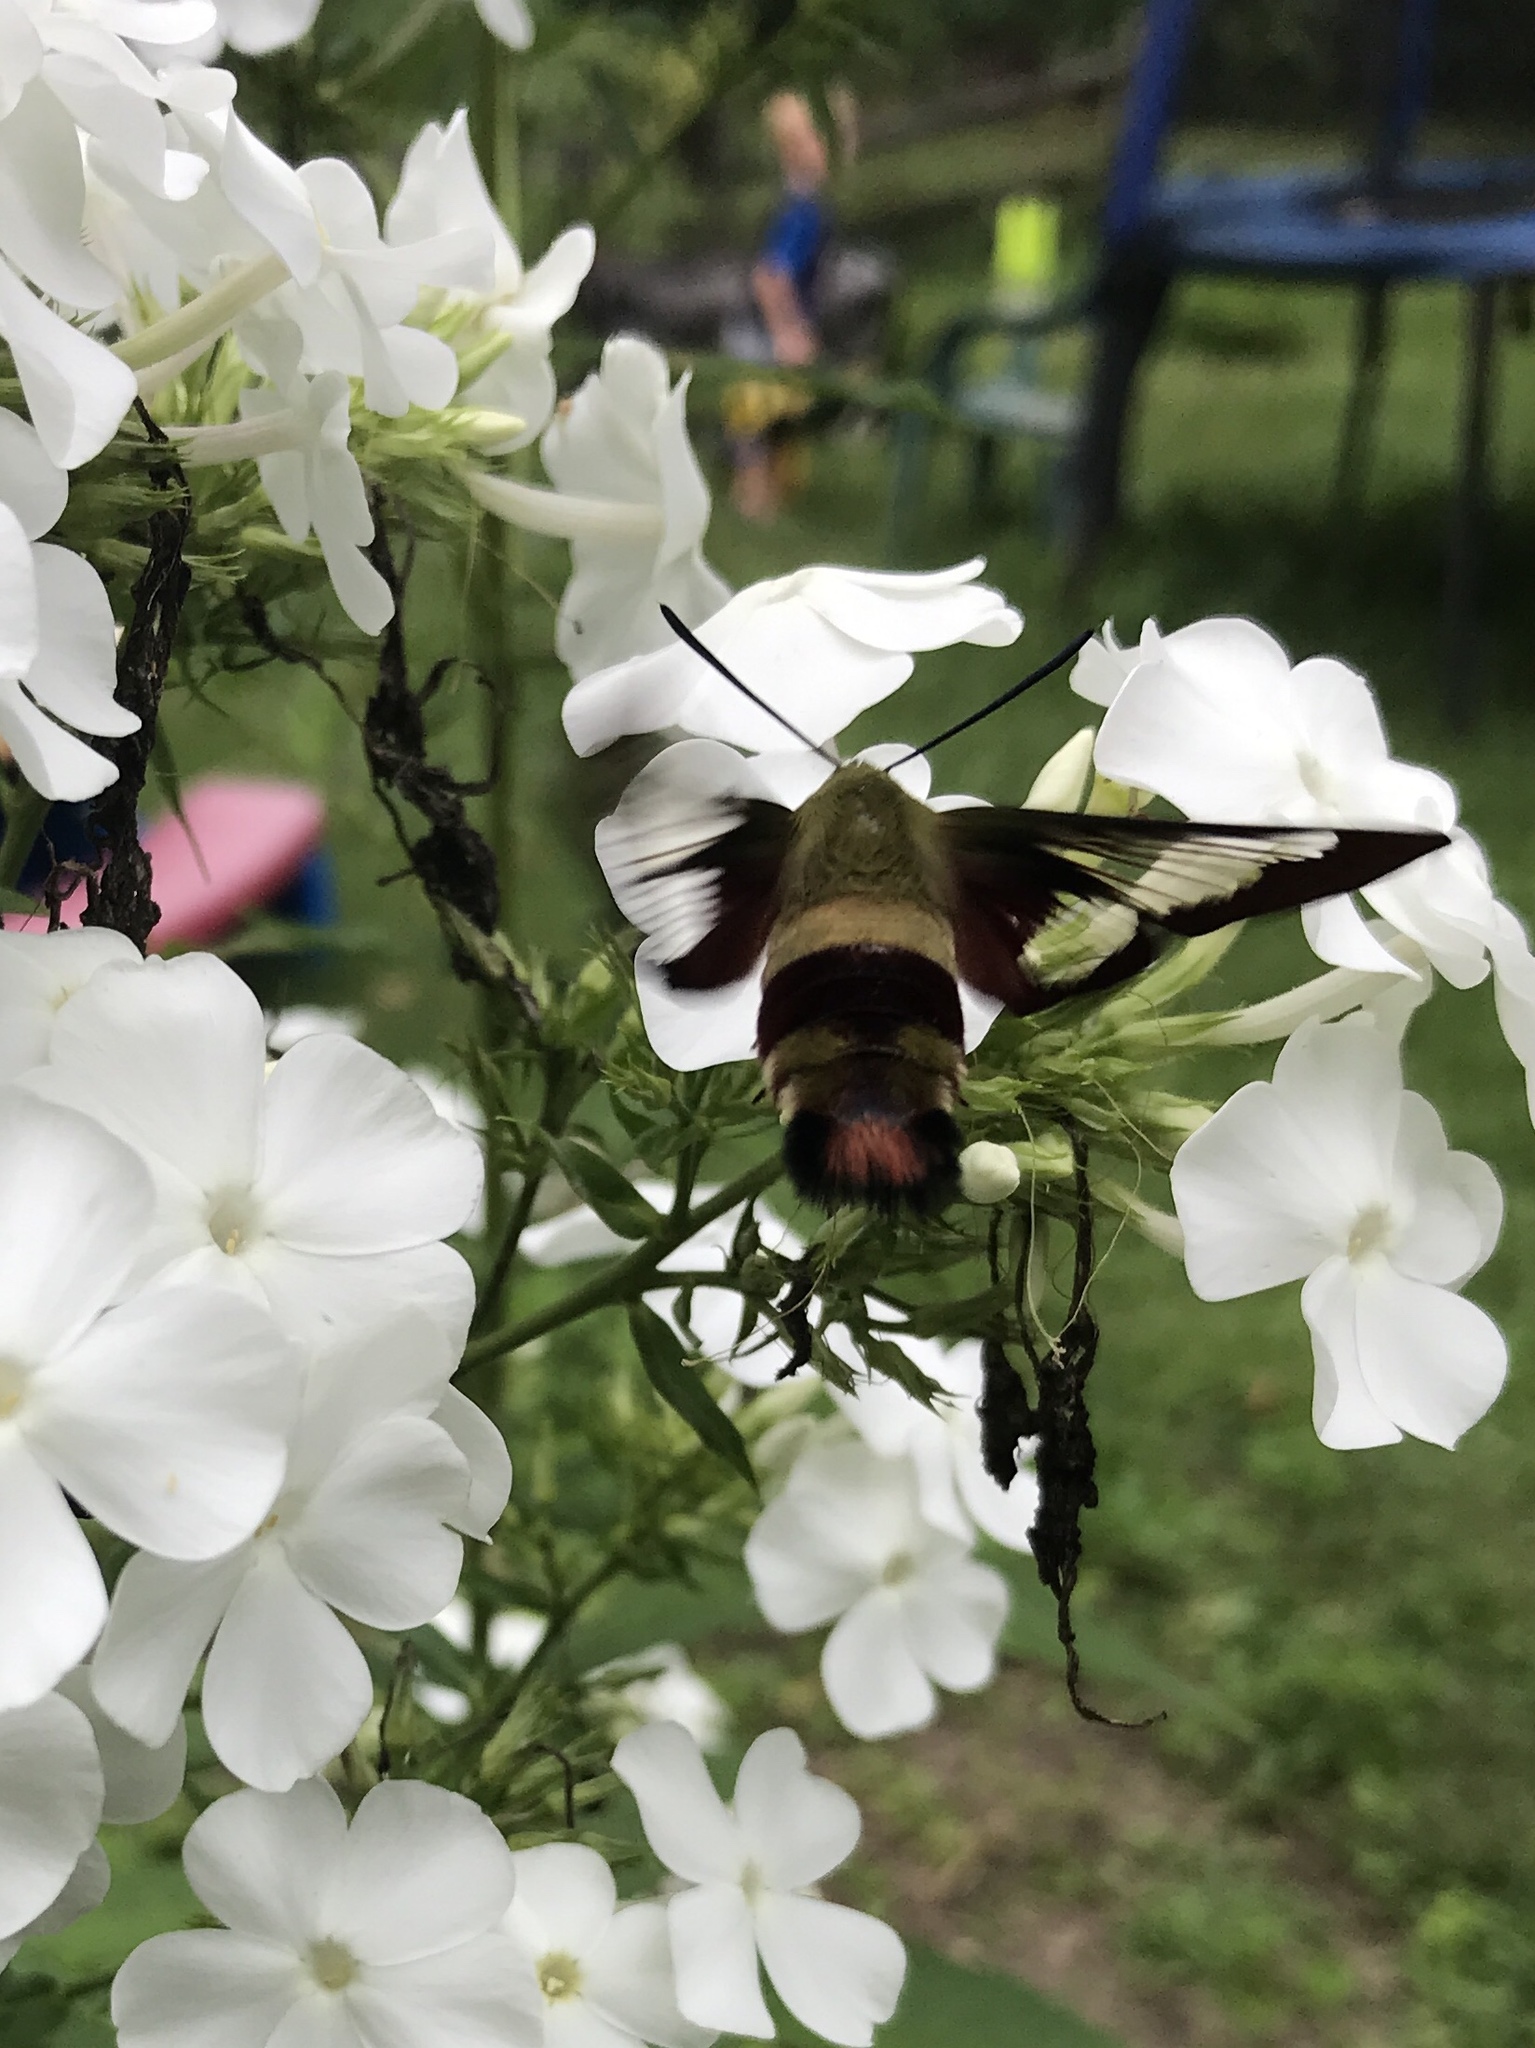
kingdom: Animalia
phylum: Arthropoda
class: Insecta
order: Lepidoptera
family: Sphingidae
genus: Hemaris
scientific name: Hemaris thysbe
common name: Common clear-wing
